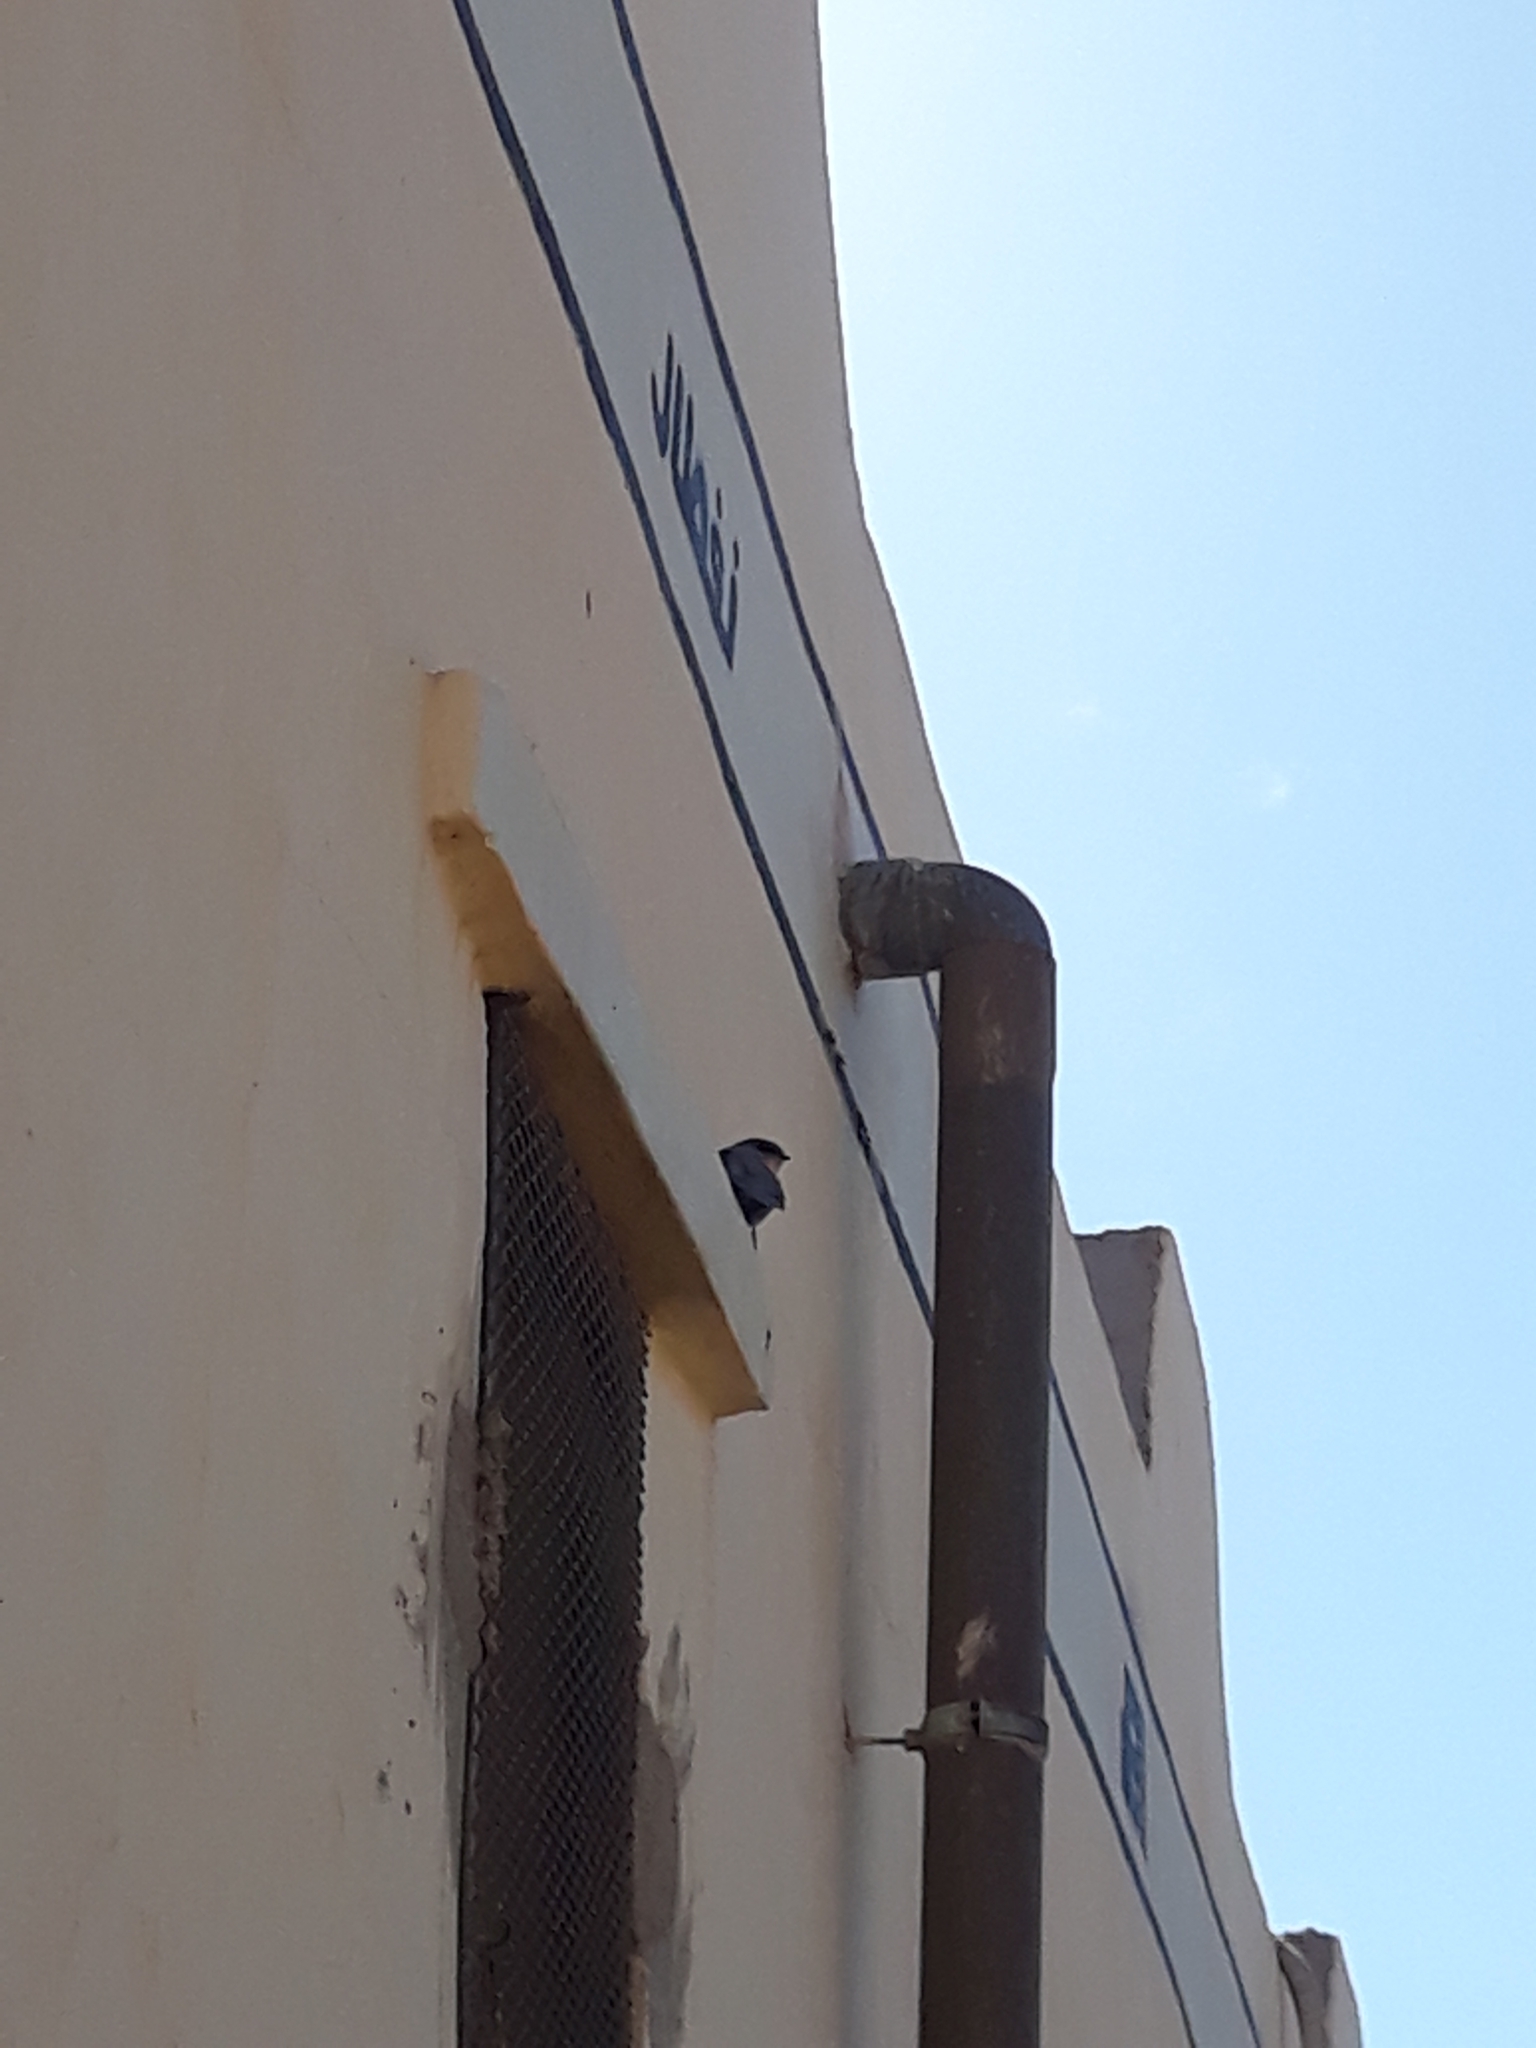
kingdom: Animalia
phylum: Chordata
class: Aves
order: Passeriformes
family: Hirundinidae
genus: Ptyonoprogne
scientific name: Ptyonoprogne fuligula
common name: Rock martin
